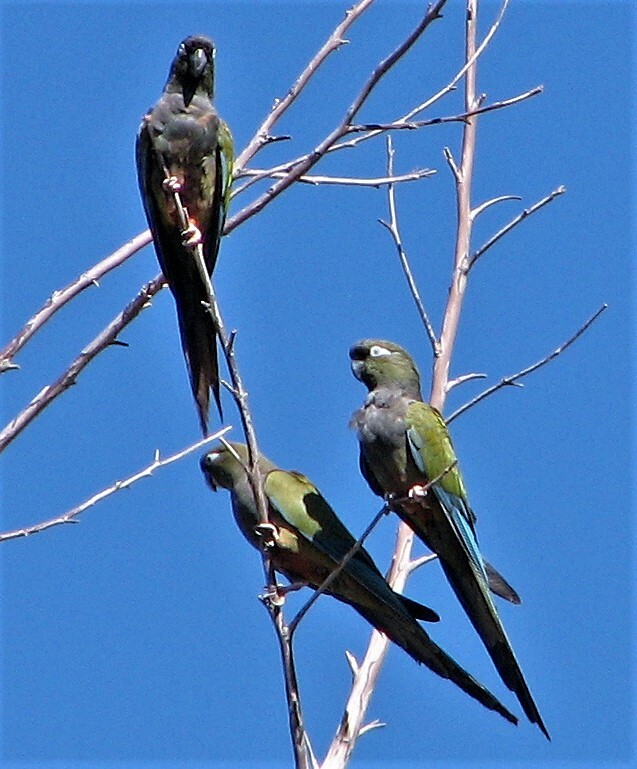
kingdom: Animalia
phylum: Chordata
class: Aves
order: Psittaciformes
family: Psittacidae
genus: Cyanoliseus
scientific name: Cyanoliseus patagonus
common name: Burrowing parrot
